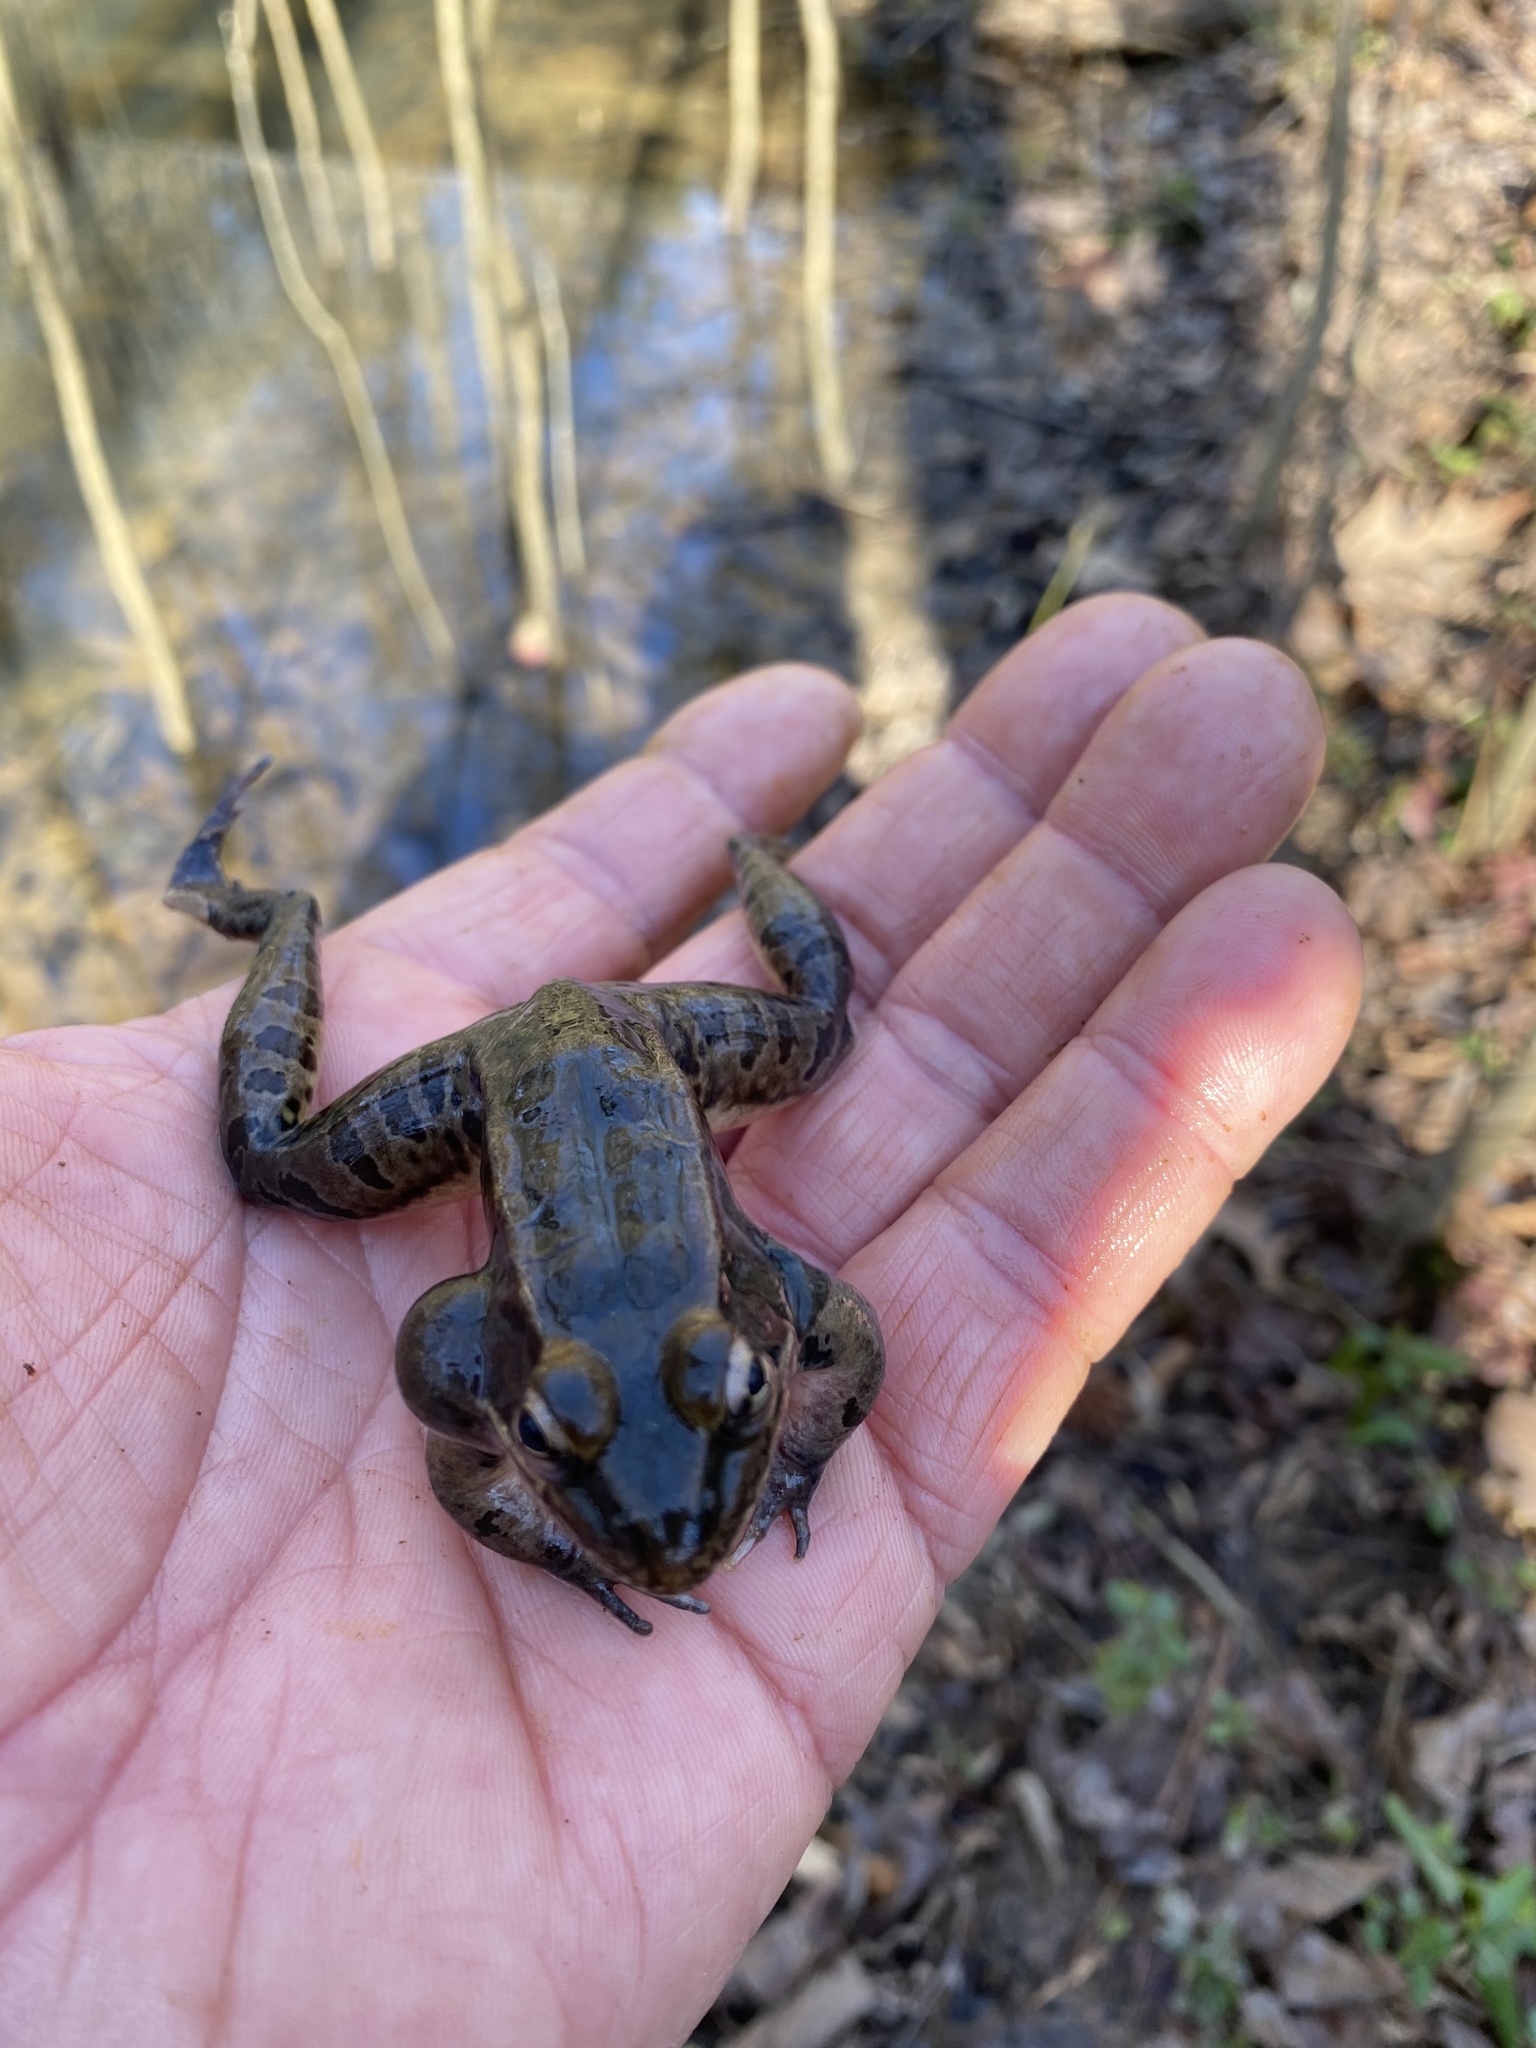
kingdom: Animalia
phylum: Chordata
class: Amphibia
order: Anura
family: Ranidae
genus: Lithobates
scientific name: Lithobates sphenocephalus
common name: Southern leopard frog
